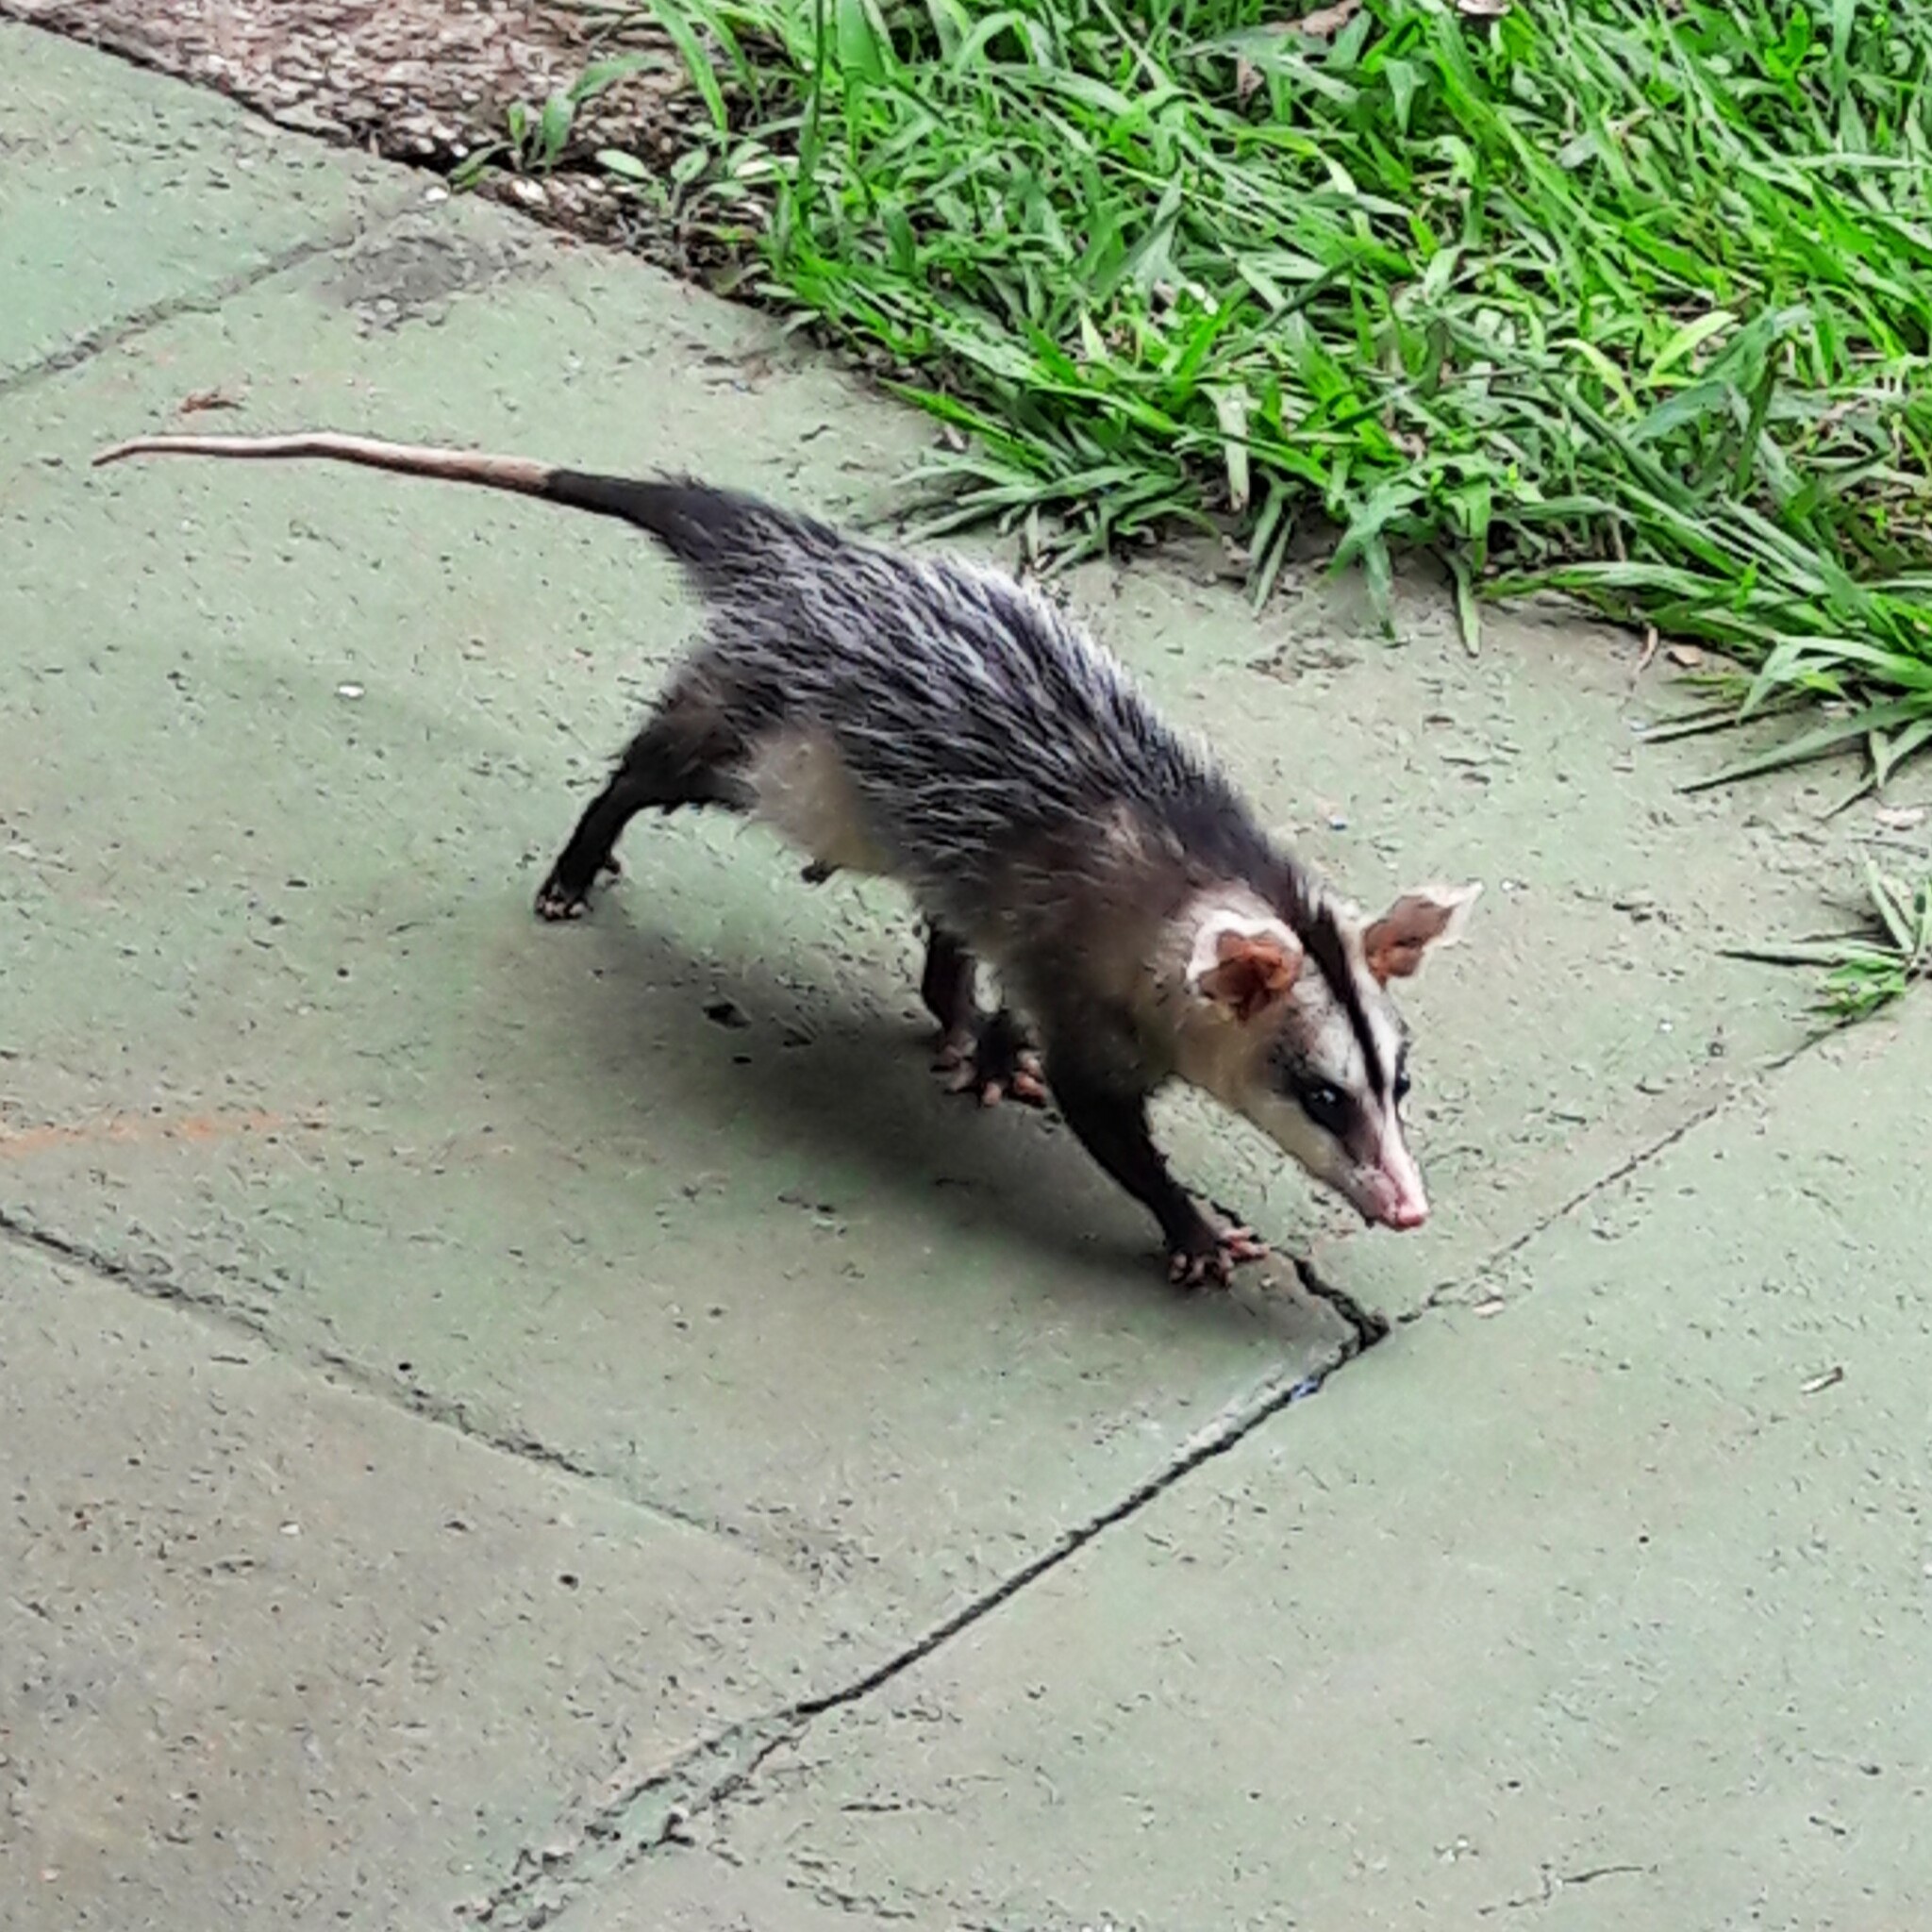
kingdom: Animalia
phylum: Chordata
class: Mammalia
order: Didelphimorphia
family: Didelphidae
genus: Didelphis
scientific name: Didelphis albiventris
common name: White-eared opossum
